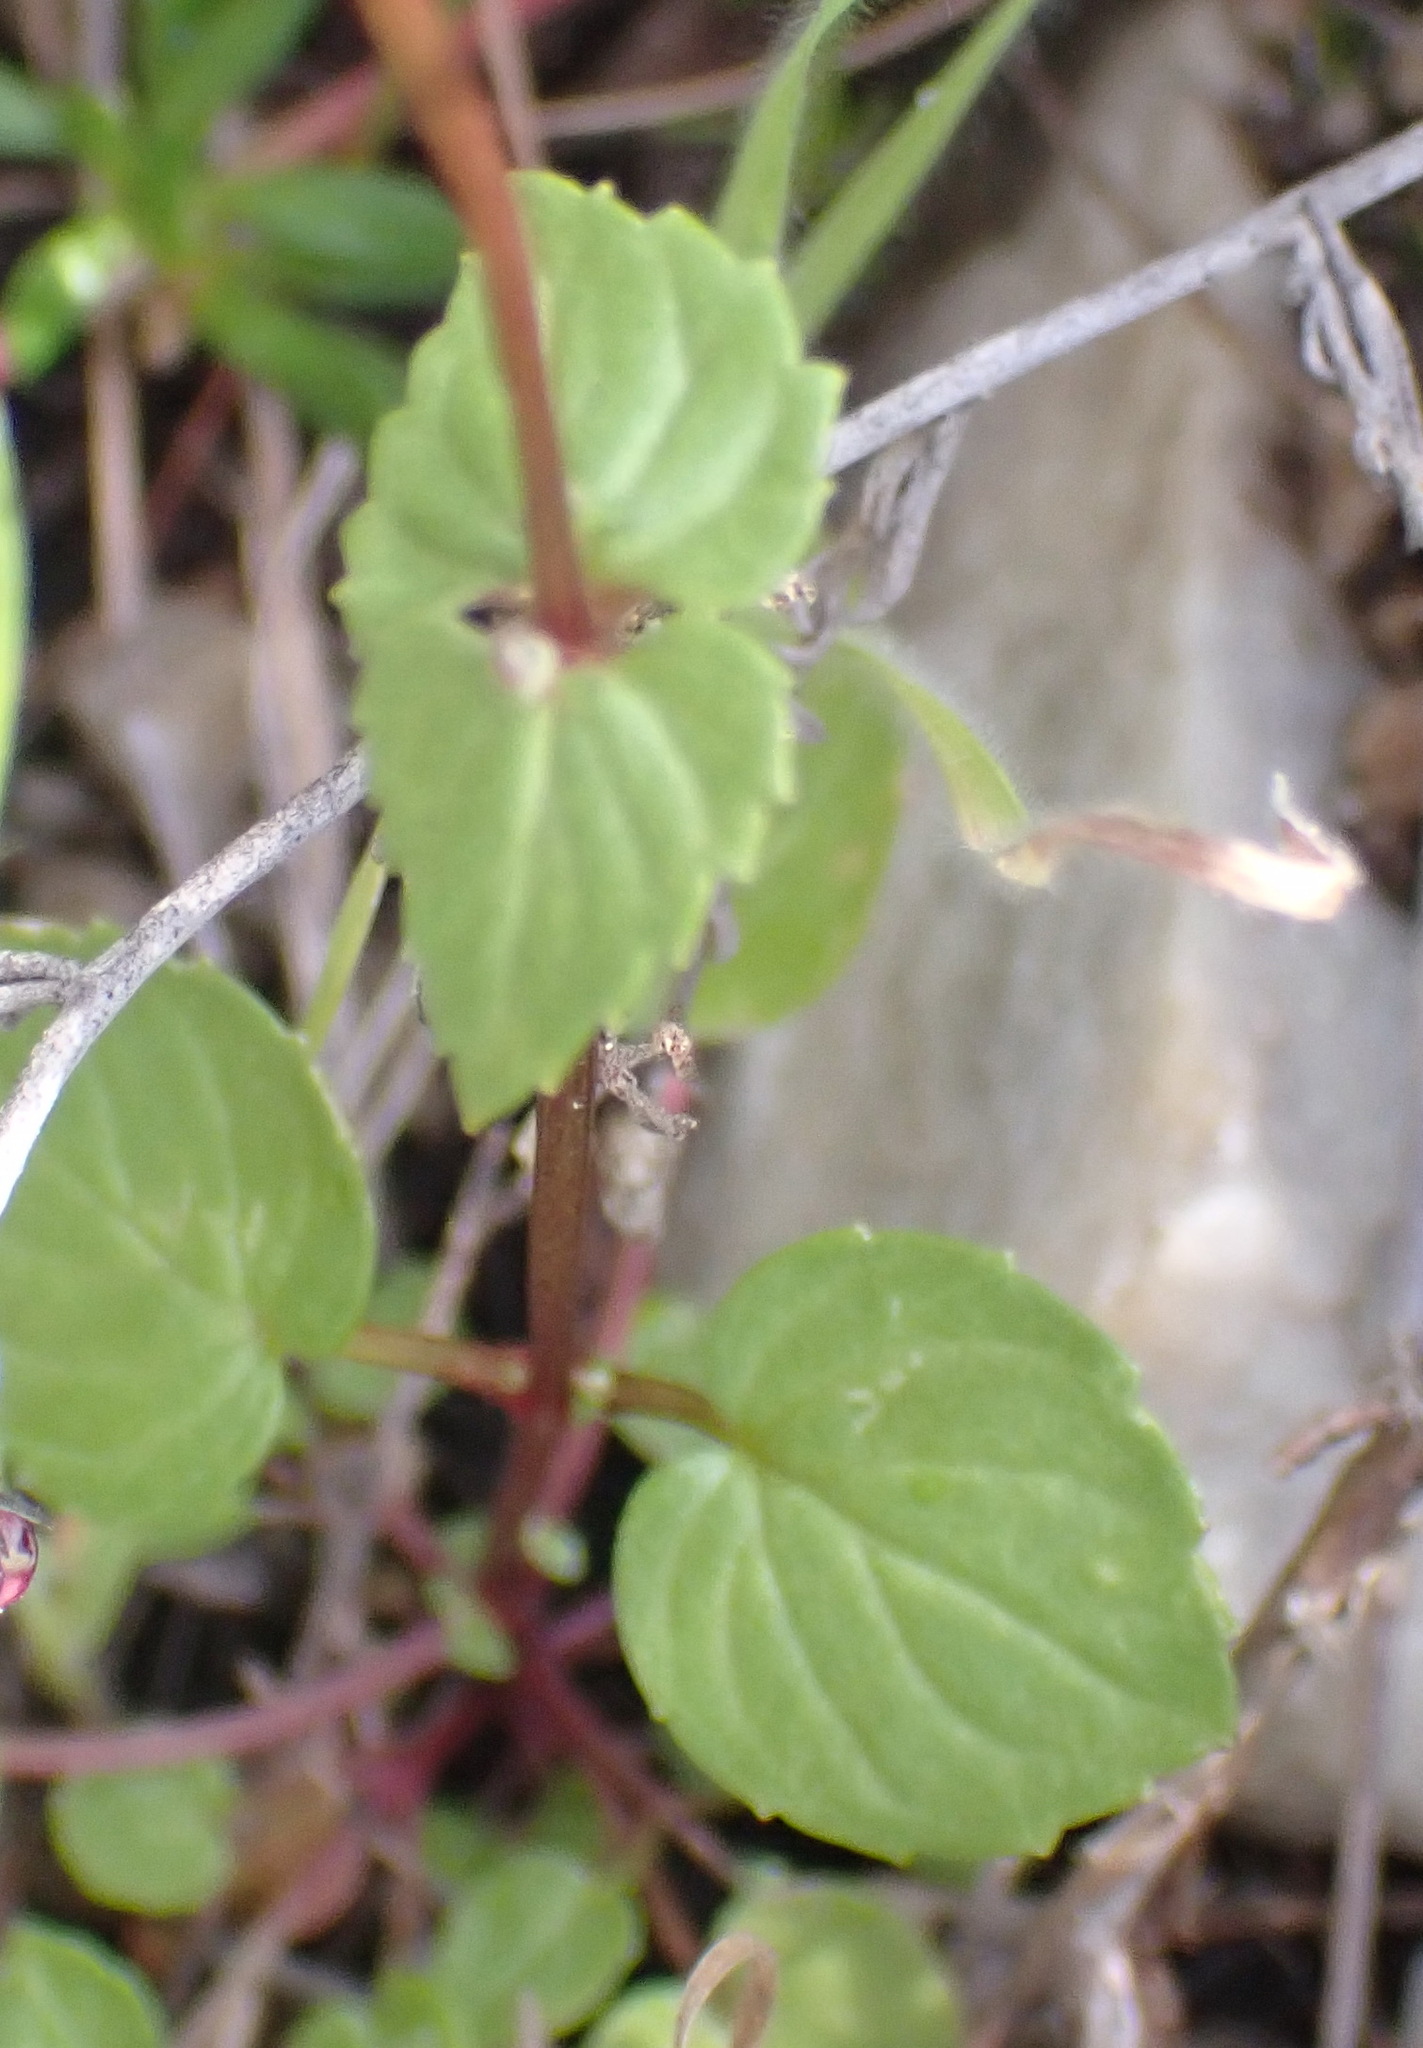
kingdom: Plantae
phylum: Tracheophyta
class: Magnoliopsida
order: Lamiales
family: Scrophulariaceae
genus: Diascia
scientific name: Diascia parviflora
